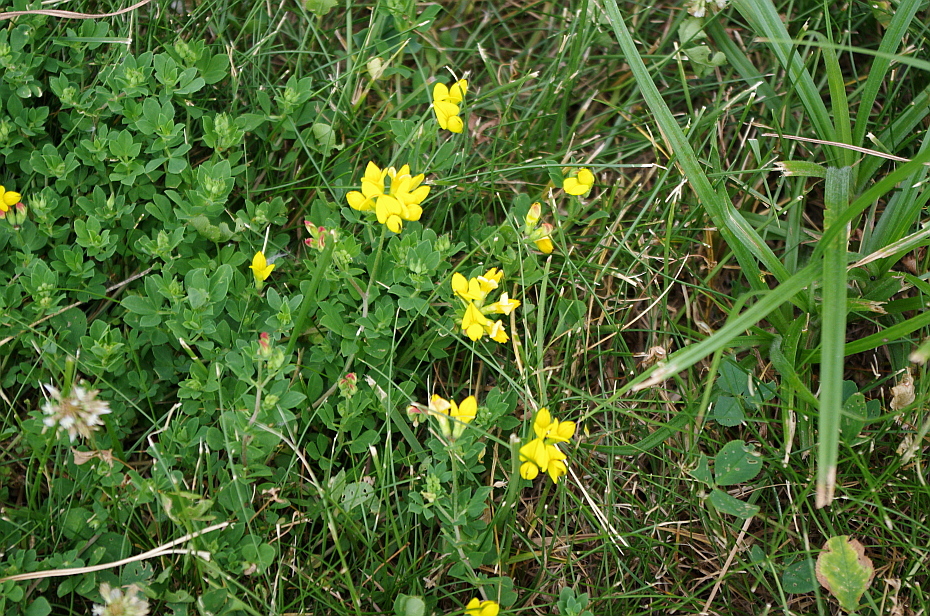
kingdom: Plantae
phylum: Tracheophyta
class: Magnoliopsida
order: Fabales
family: Fabaceae
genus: Lotus
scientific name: Lotus corniculatus
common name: Common bird's-foot-trefoil
